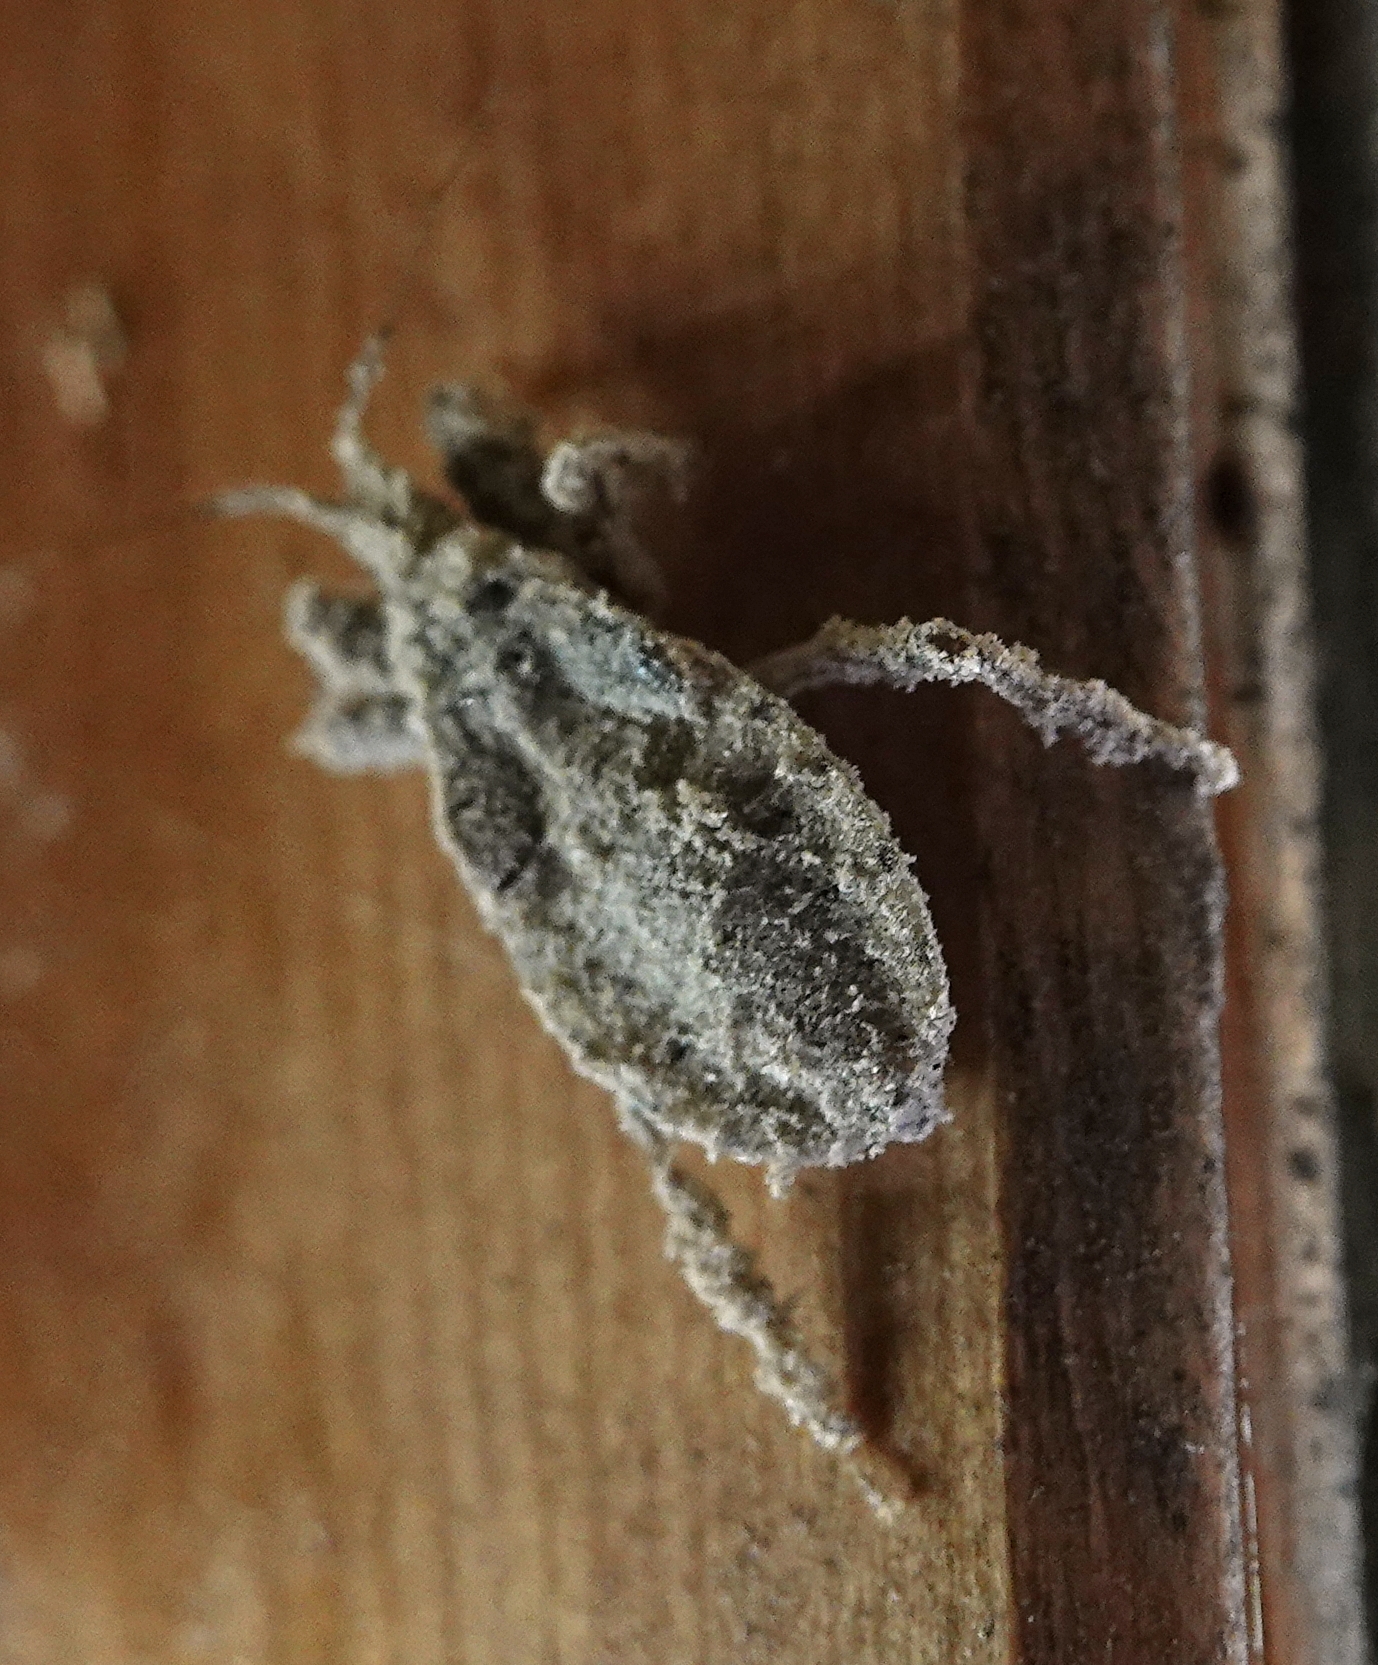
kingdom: Animalia
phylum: Arthropoda
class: Insecta
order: Hemiptera
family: Reduviidae
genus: Reduvius
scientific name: Reduvius personatus
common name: Masked hunter
